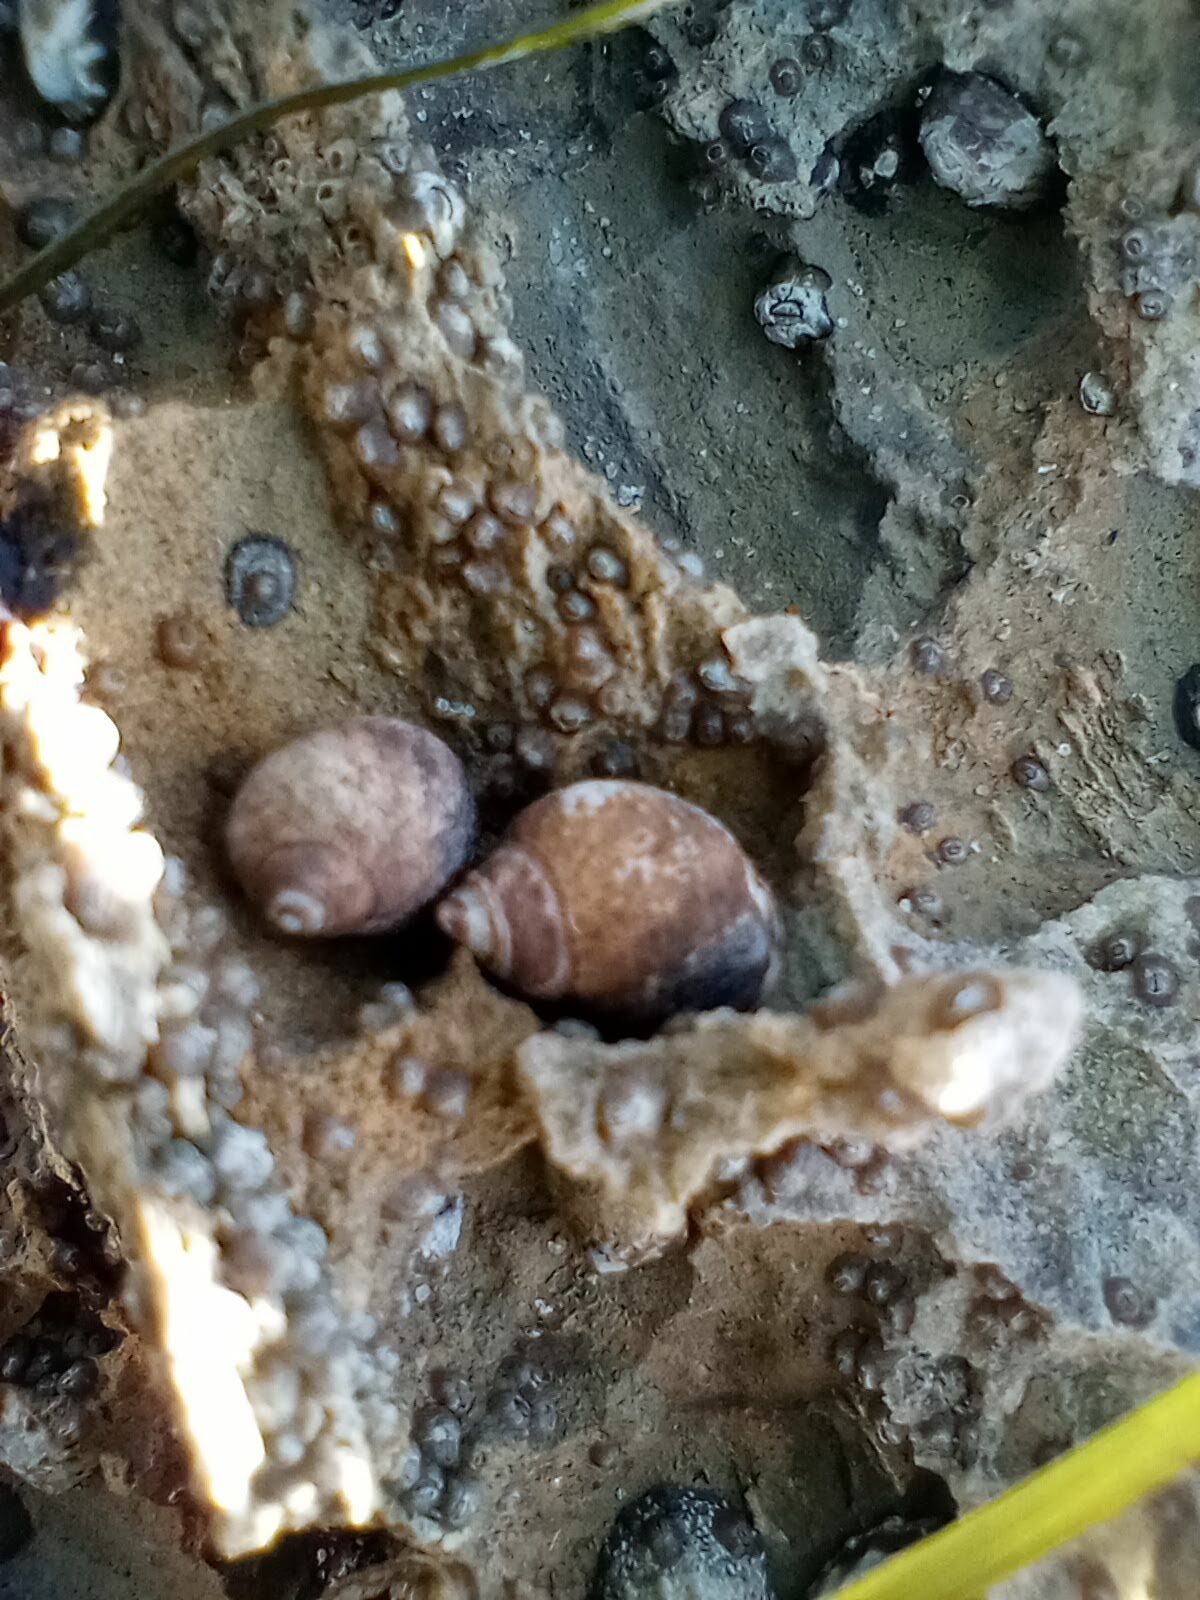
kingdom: Animalia
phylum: Mollusca
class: Gastropoda
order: Littorinimorpha
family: Littorinidae
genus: Littorina
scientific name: Littorina keenae
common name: Eroded periwinkle
